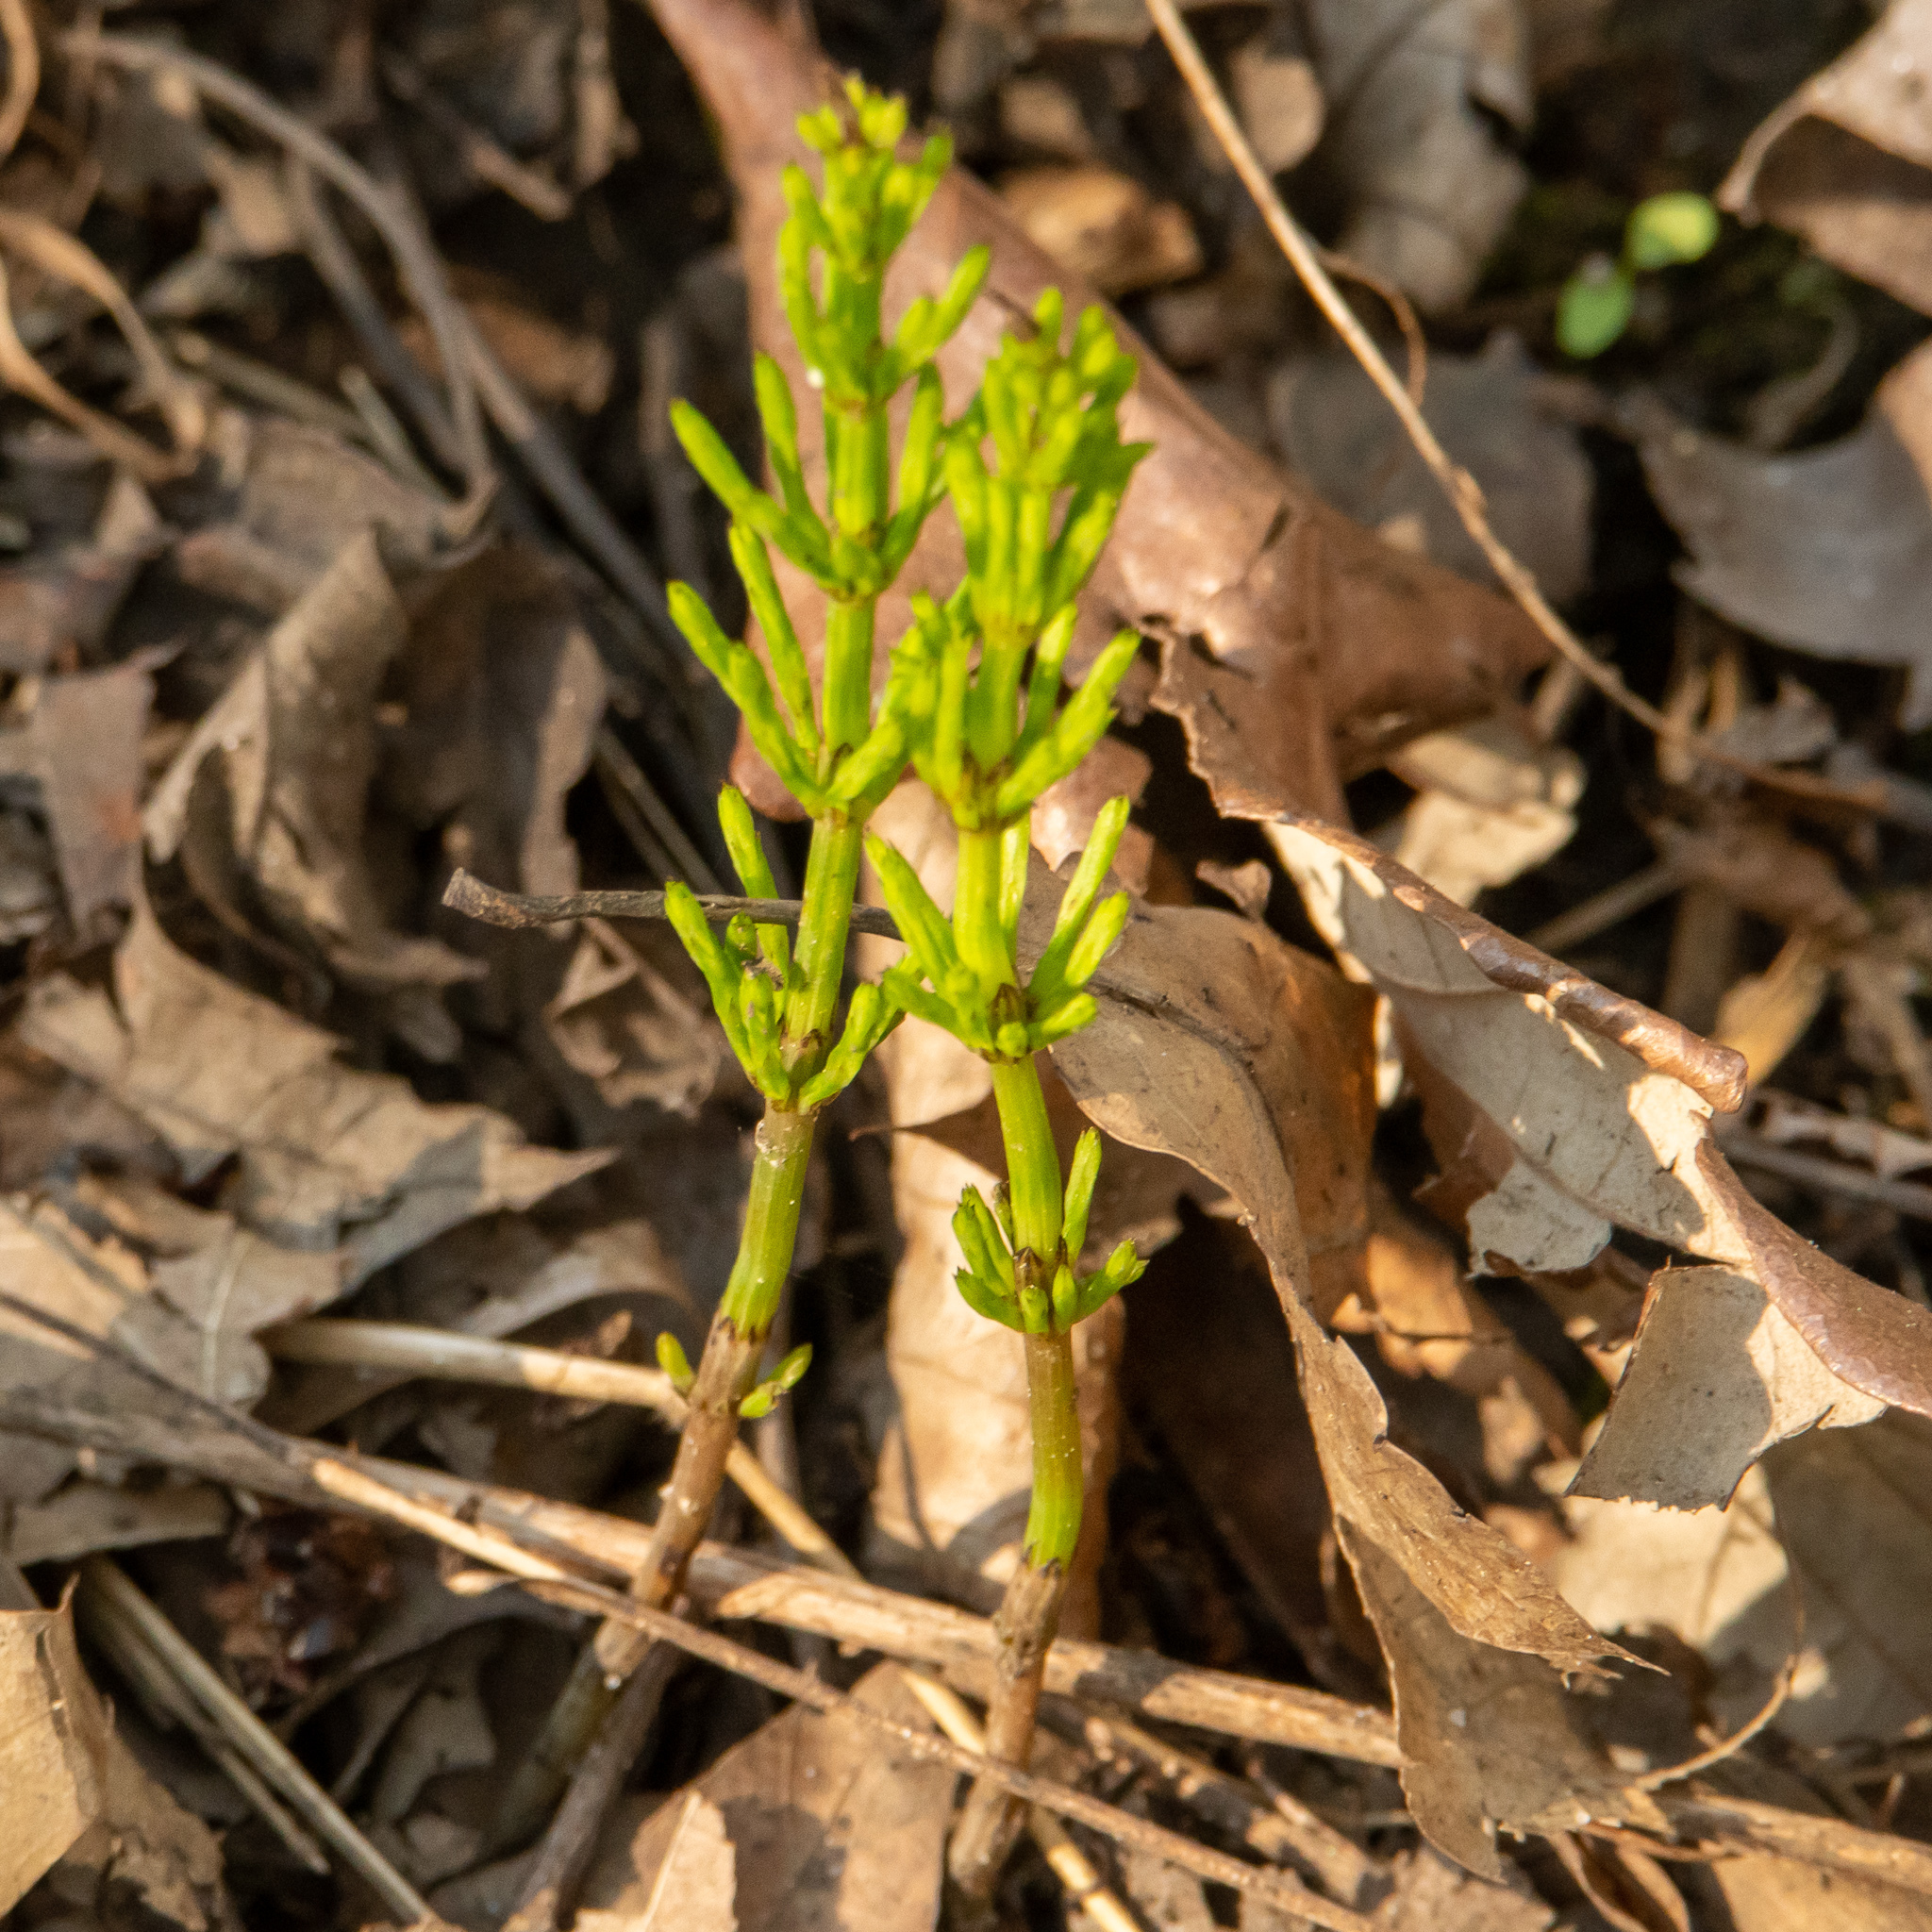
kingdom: Plantae
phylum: Tracheophyta
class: Polypodiopsida
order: Equisetales
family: Equisetaceae
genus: Equisetum
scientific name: Equisetum arvense
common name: Field horsetail
